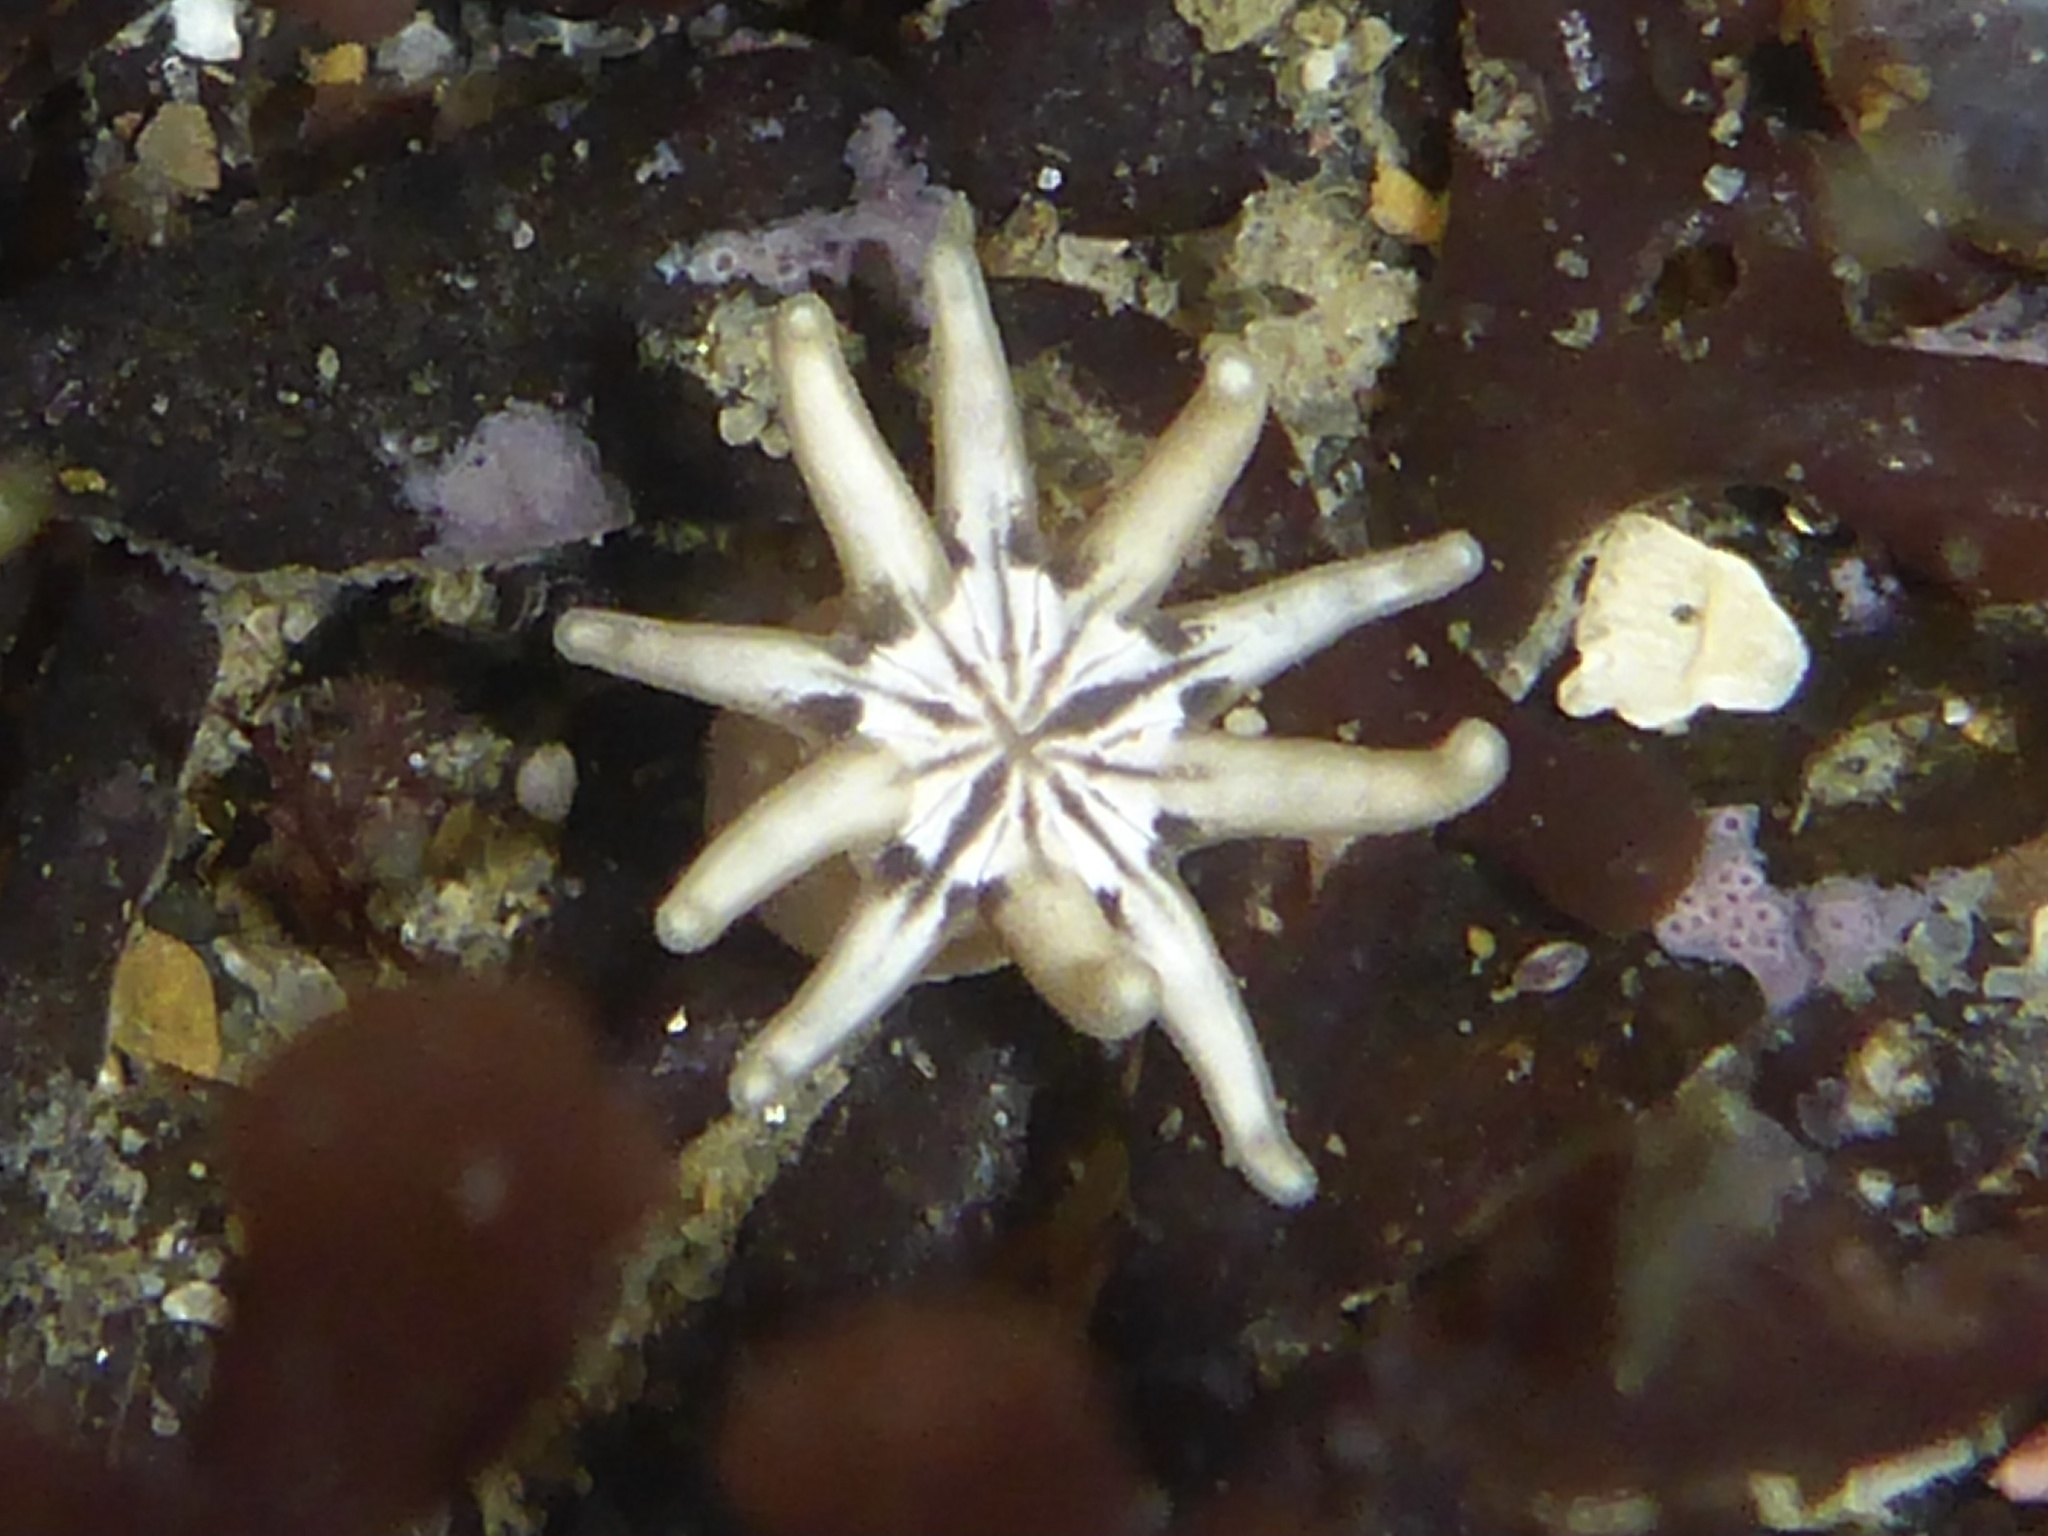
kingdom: Animalia
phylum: Cnidaria
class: Anthozoa
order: Actiniaria
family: Halcampidae
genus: Halcampa
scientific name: Halcampa decemtentaculata
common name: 10-tentacle burrowing anemone
